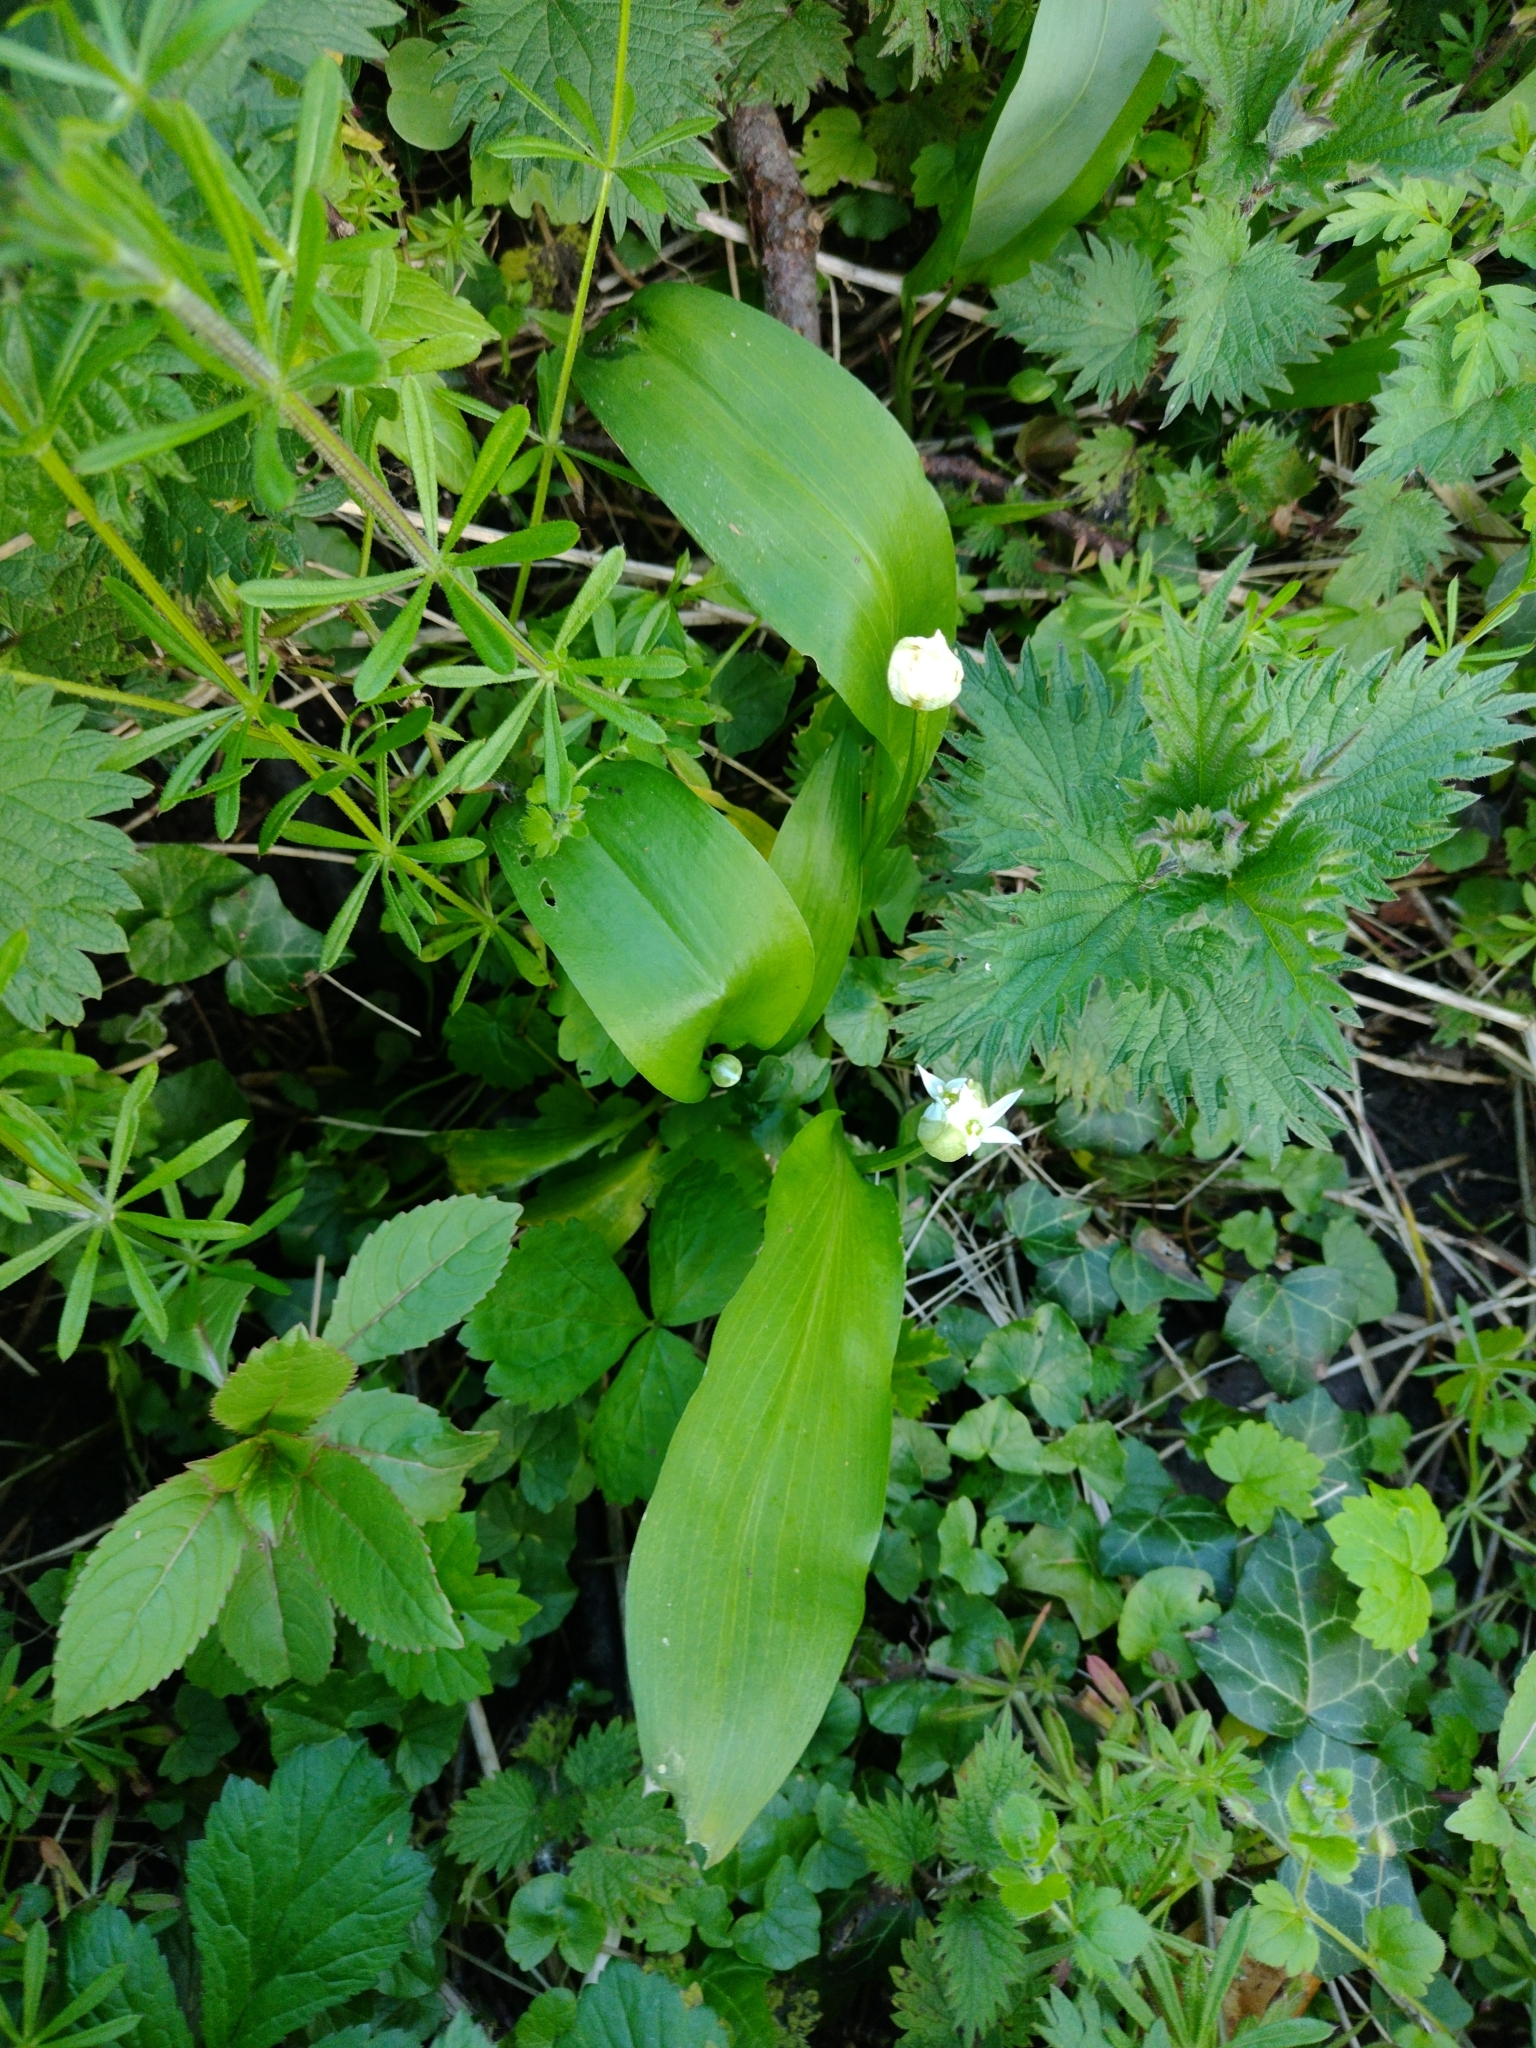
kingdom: Plantae
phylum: Tracheophyta
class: Liliopsida
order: Asparagales
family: Amaryllidaceae
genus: Allium
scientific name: Allium ursinum
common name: Ramsons
